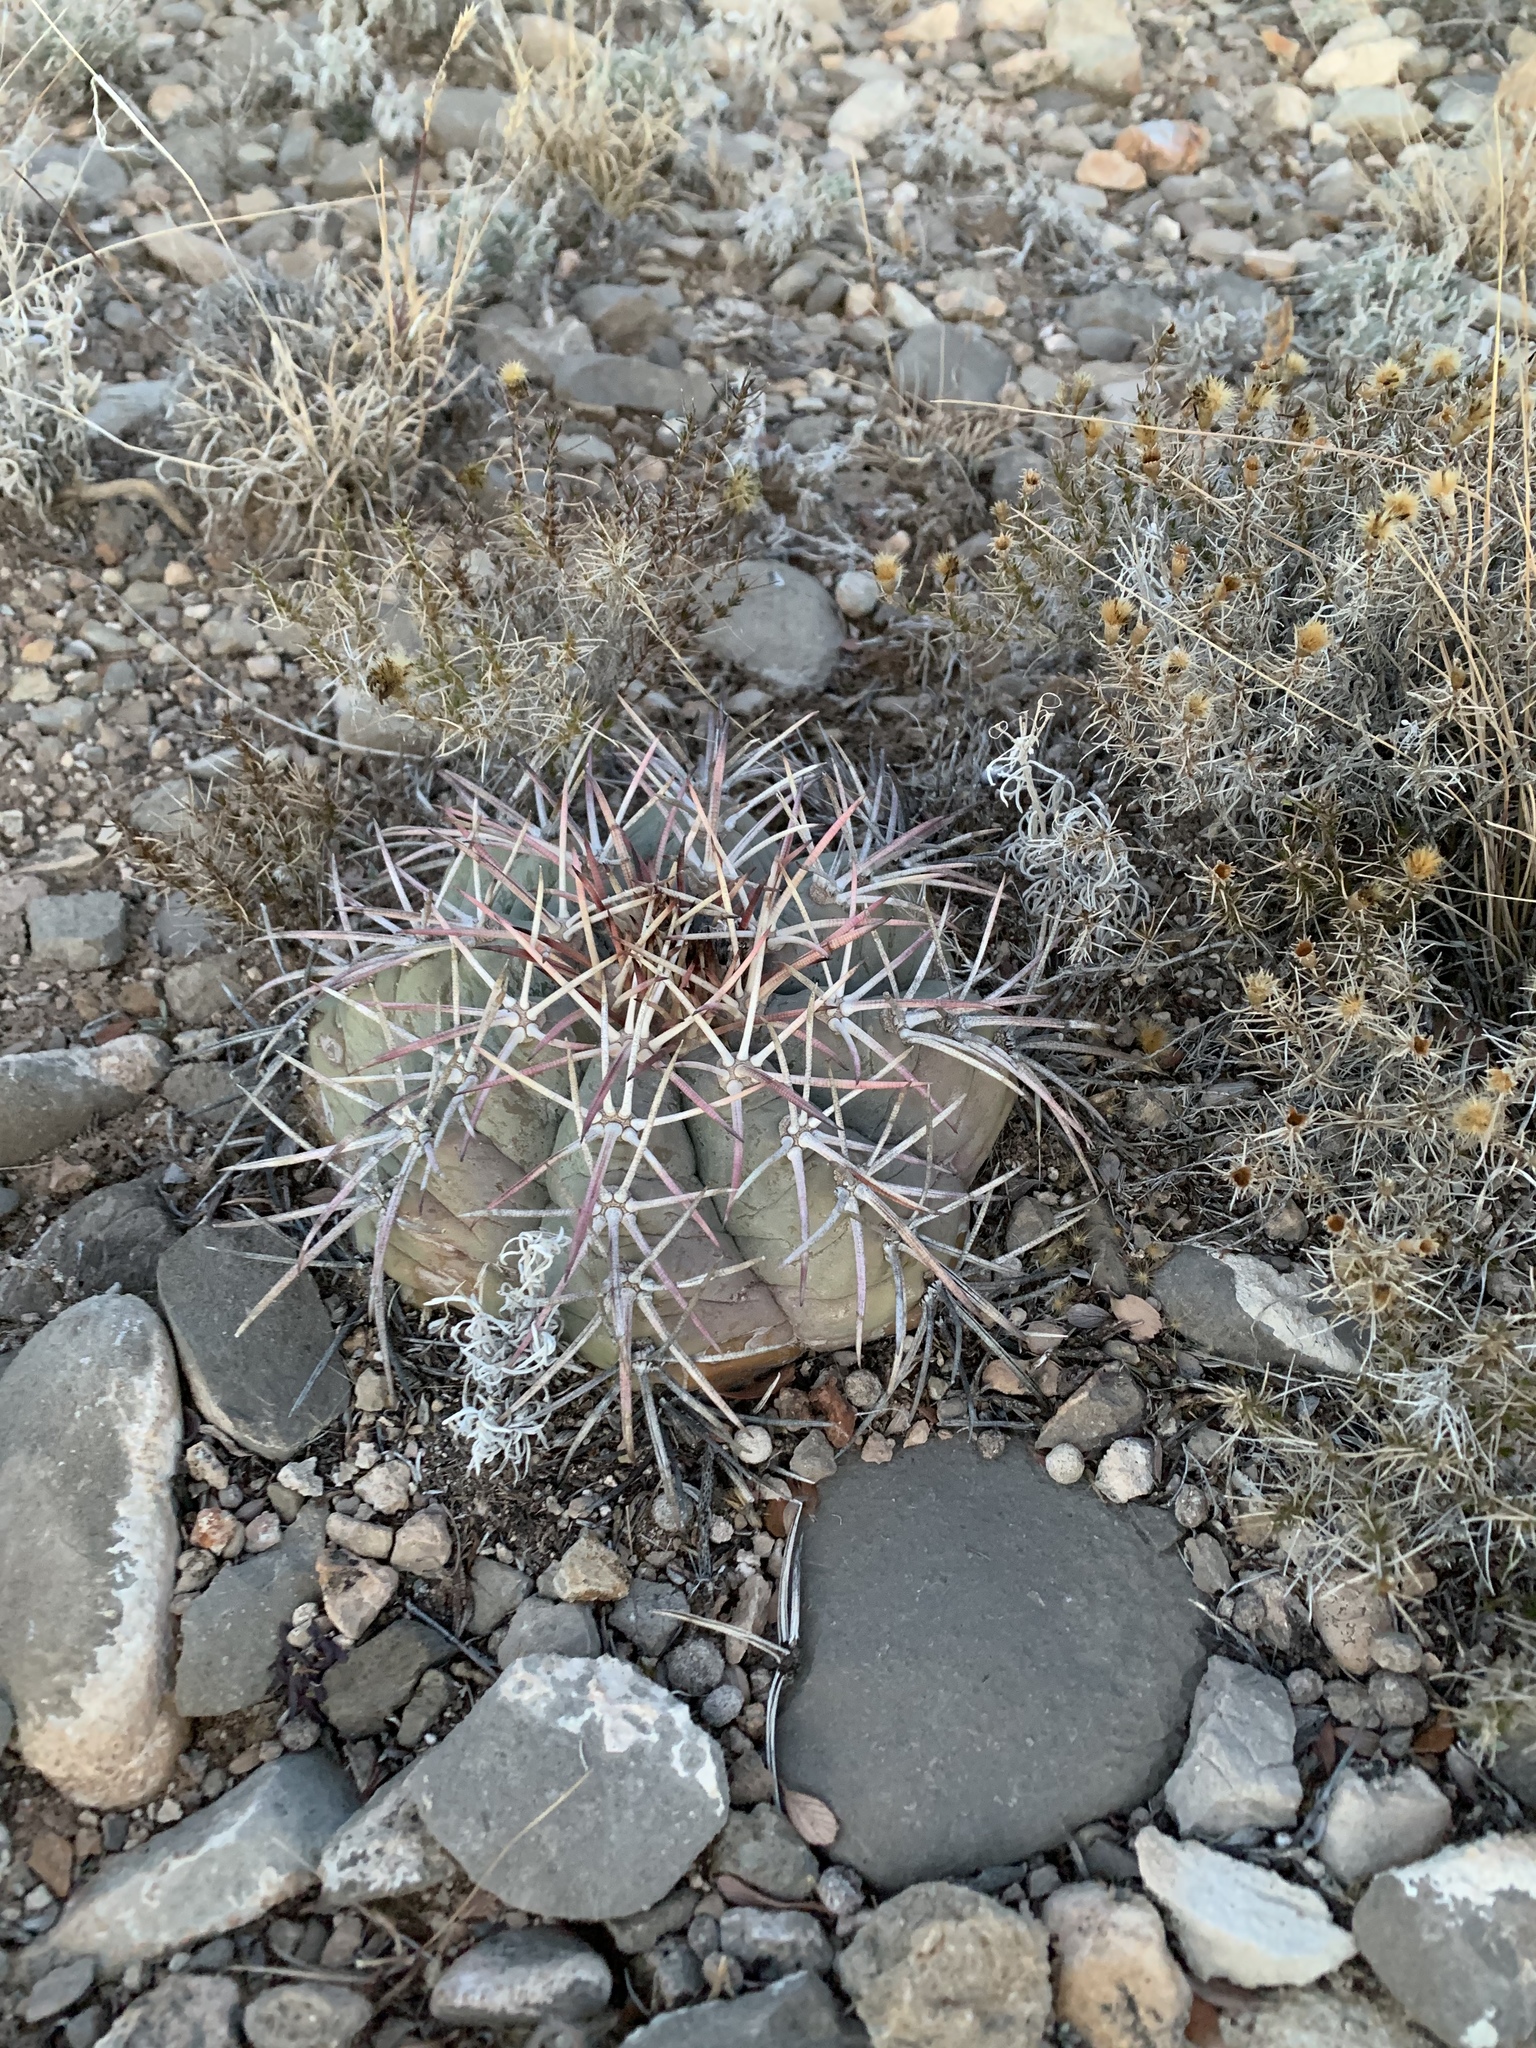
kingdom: Plantae
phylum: Tracheophyta
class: Magnoliopsida
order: Caryophyllales
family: Cactaceae
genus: Echinocactus
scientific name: Echinocactus horizonthalonius
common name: Devilshead
